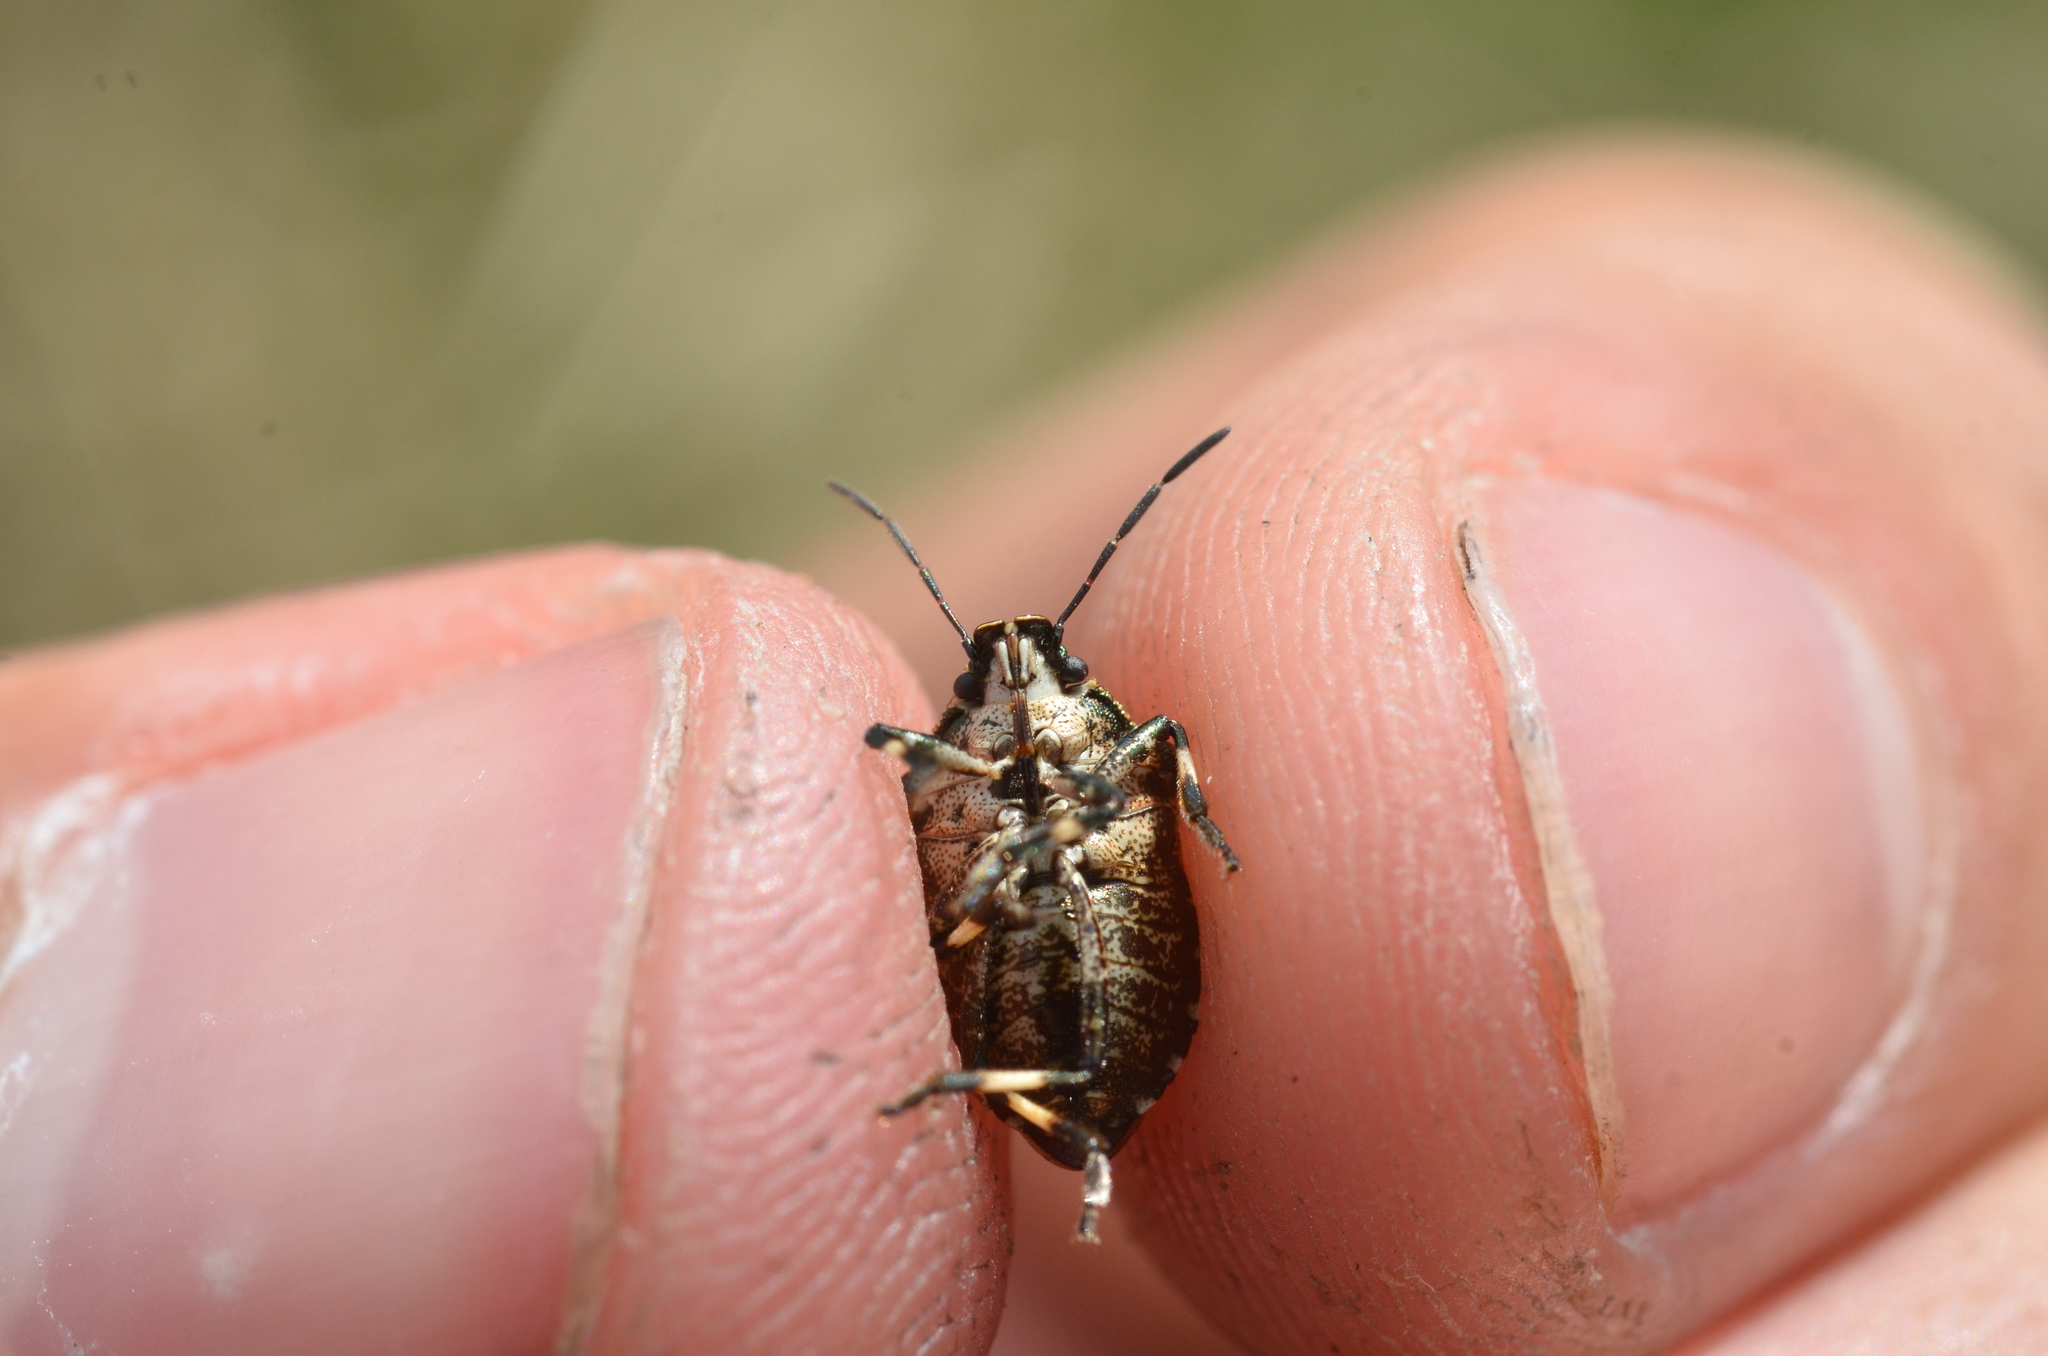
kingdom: Animalia
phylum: Arthropoda
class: Insecta
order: Hemiptera
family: Pentatomidae
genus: Rhacognathus
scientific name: Rhacognathus punctatus
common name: Heather bug
